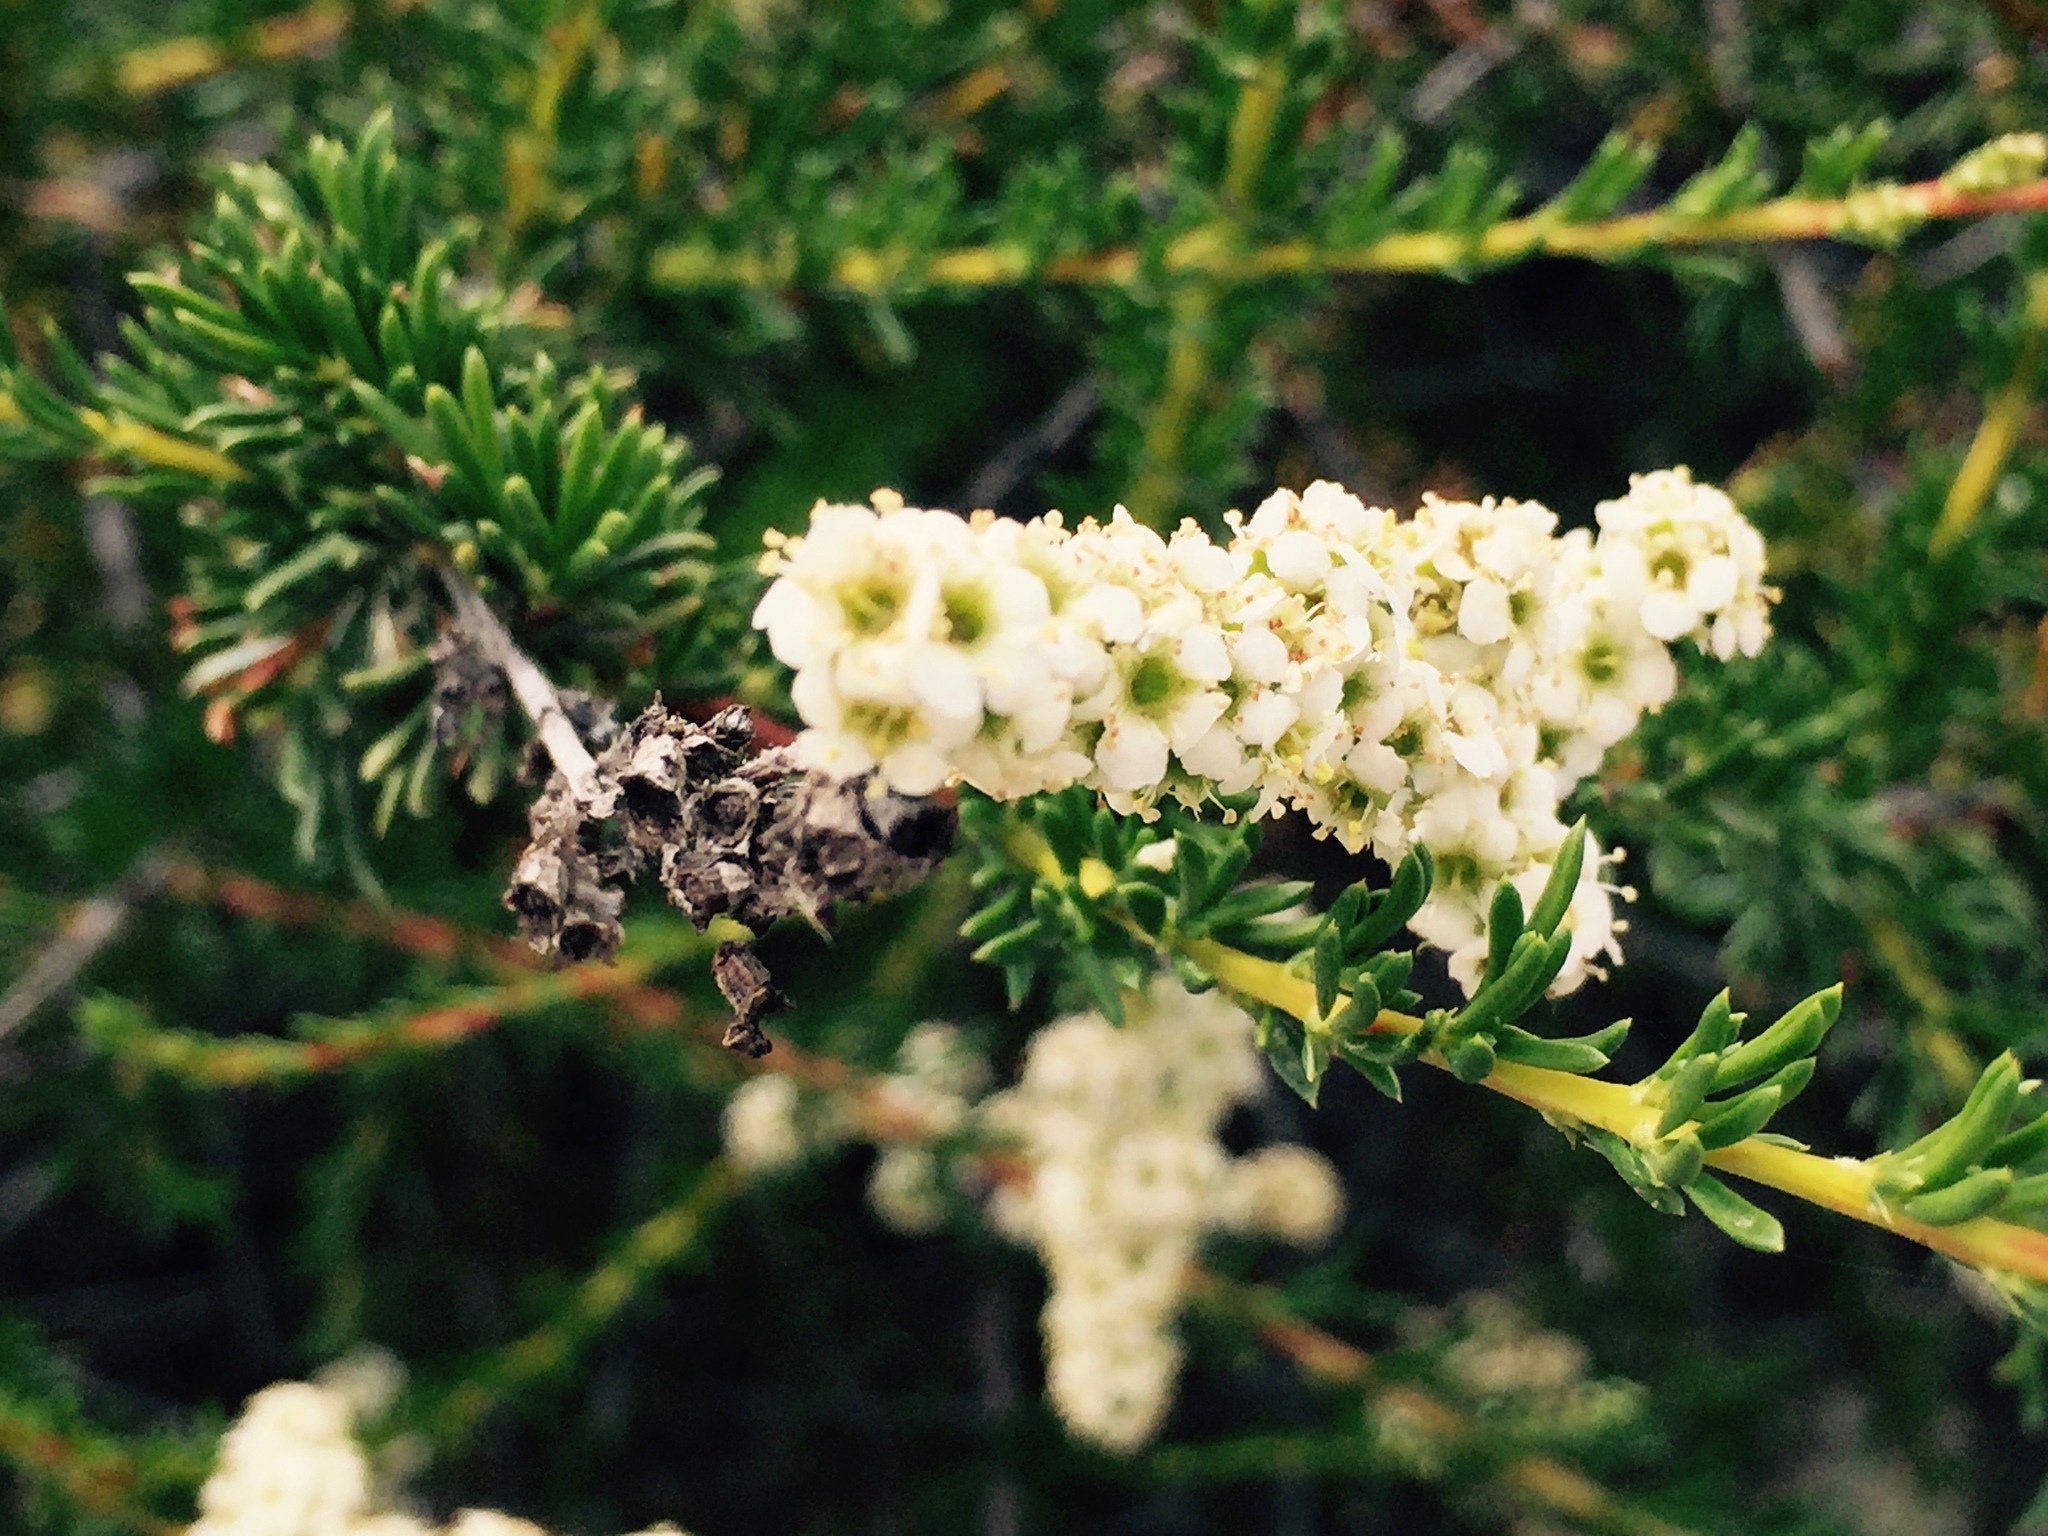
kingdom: Plantae
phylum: Tracheophyta
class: Magnoliopsida
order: Rosales
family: Rosaceae
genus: Adenostoma
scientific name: Adenostoma fasciculatum
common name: Chamise
